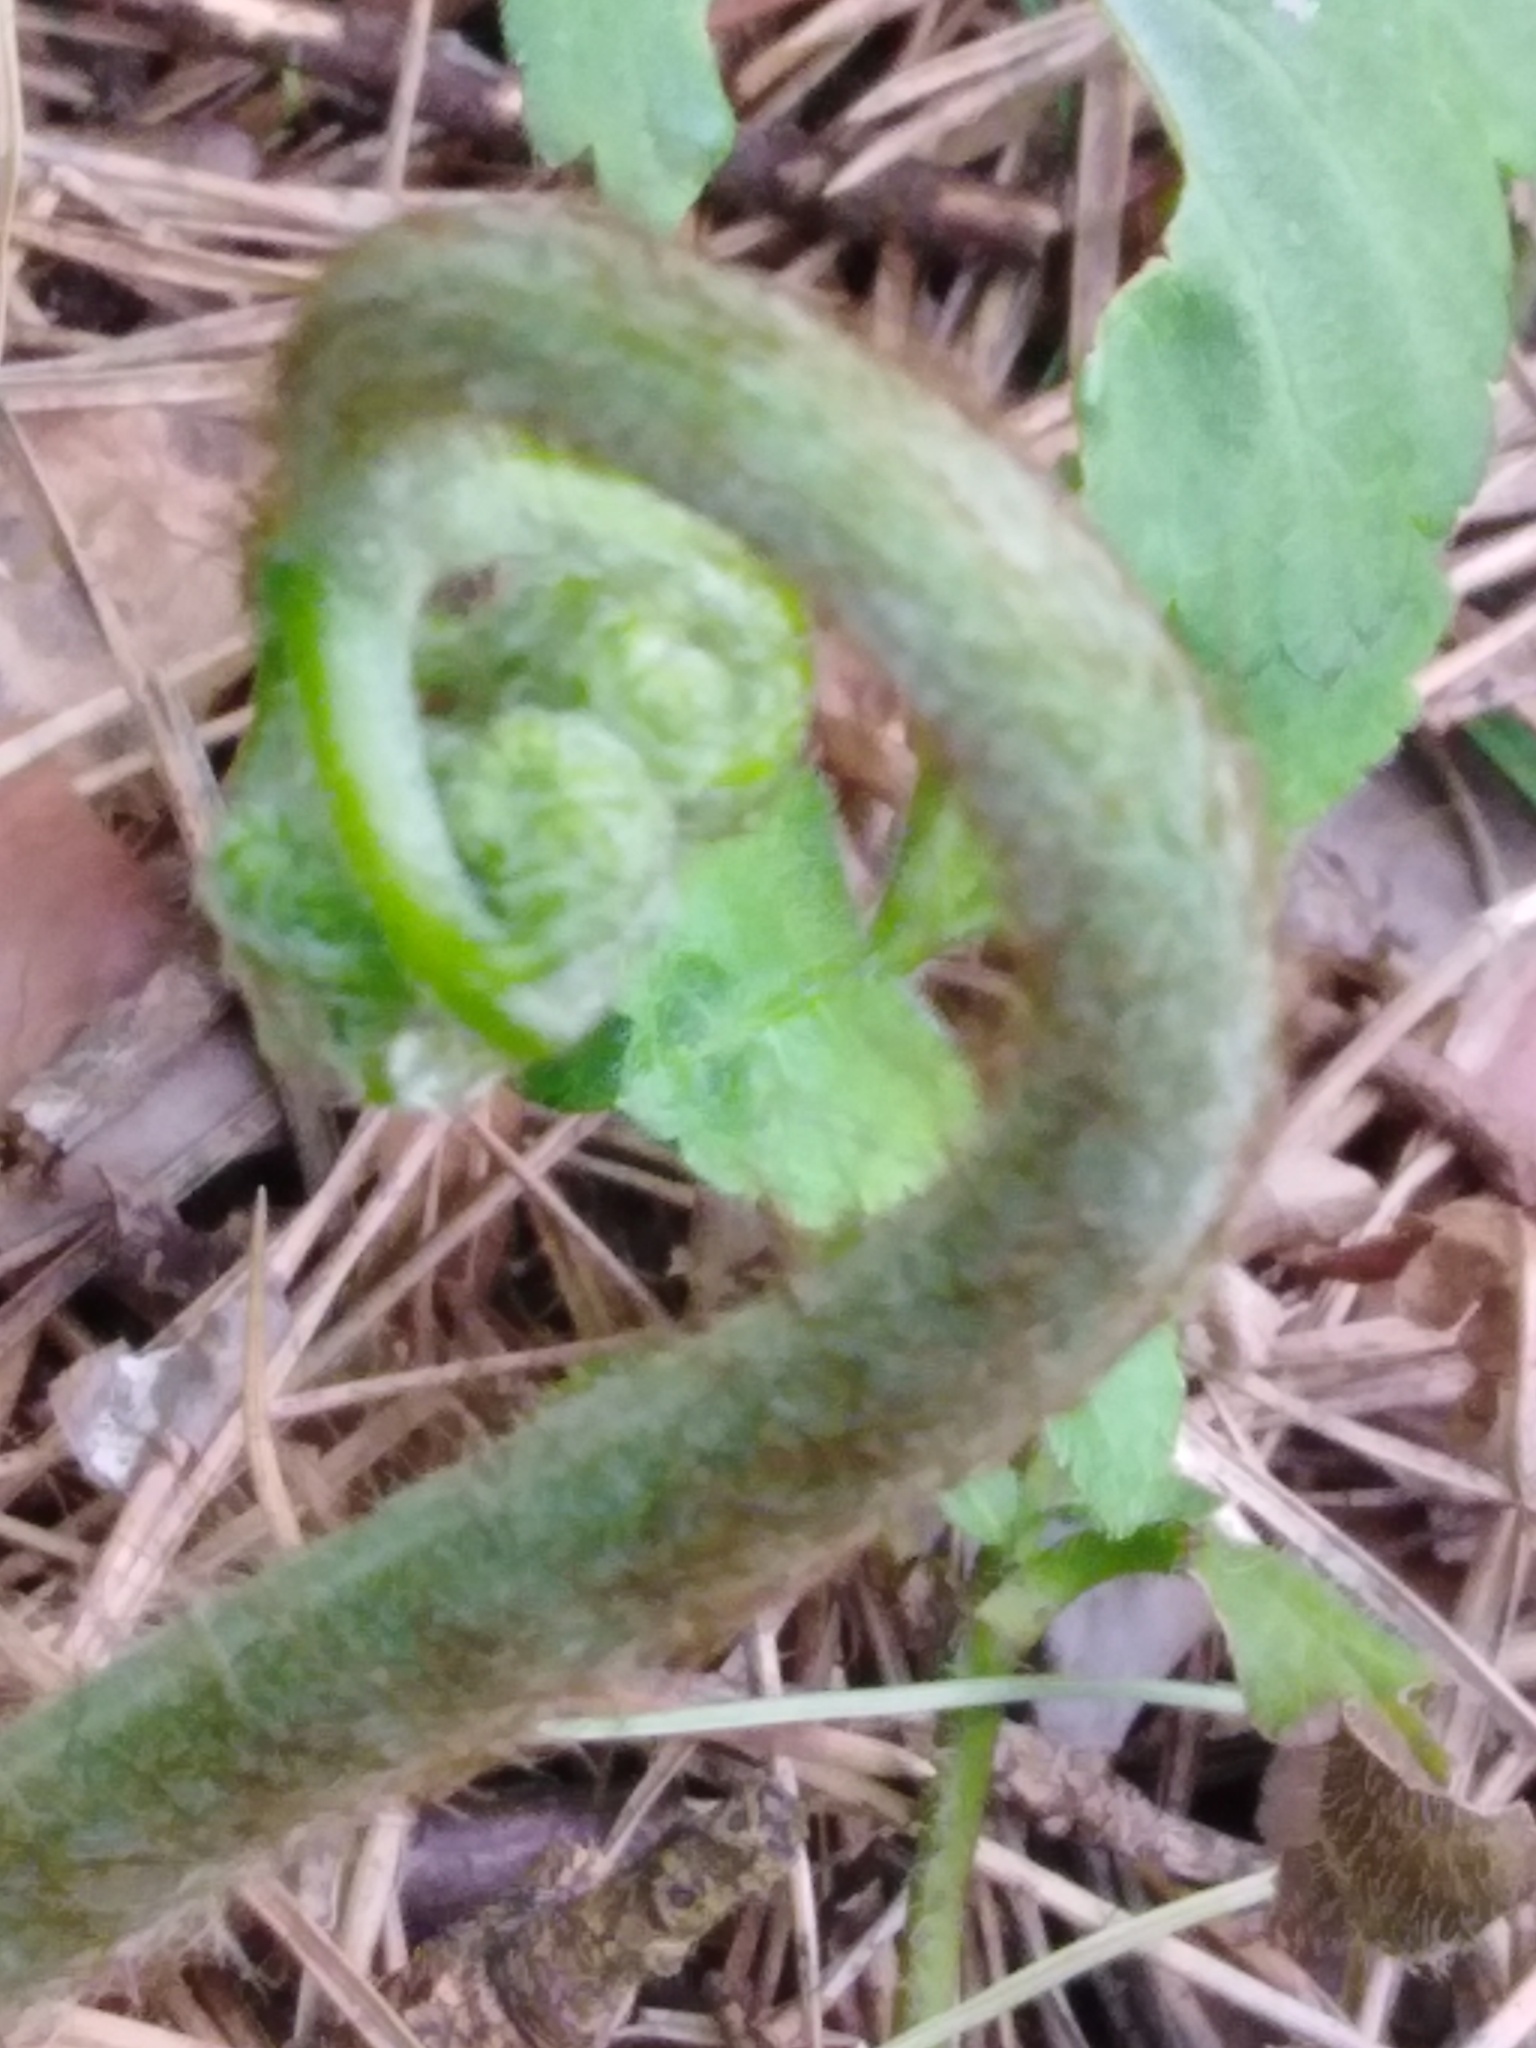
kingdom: Plantae
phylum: Tracheophyta
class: Polypodiopsida
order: Polypodiales
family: Dennstaedtiaceae
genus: Pteridium
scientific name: Pteridium aquilinum
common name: Bracken
